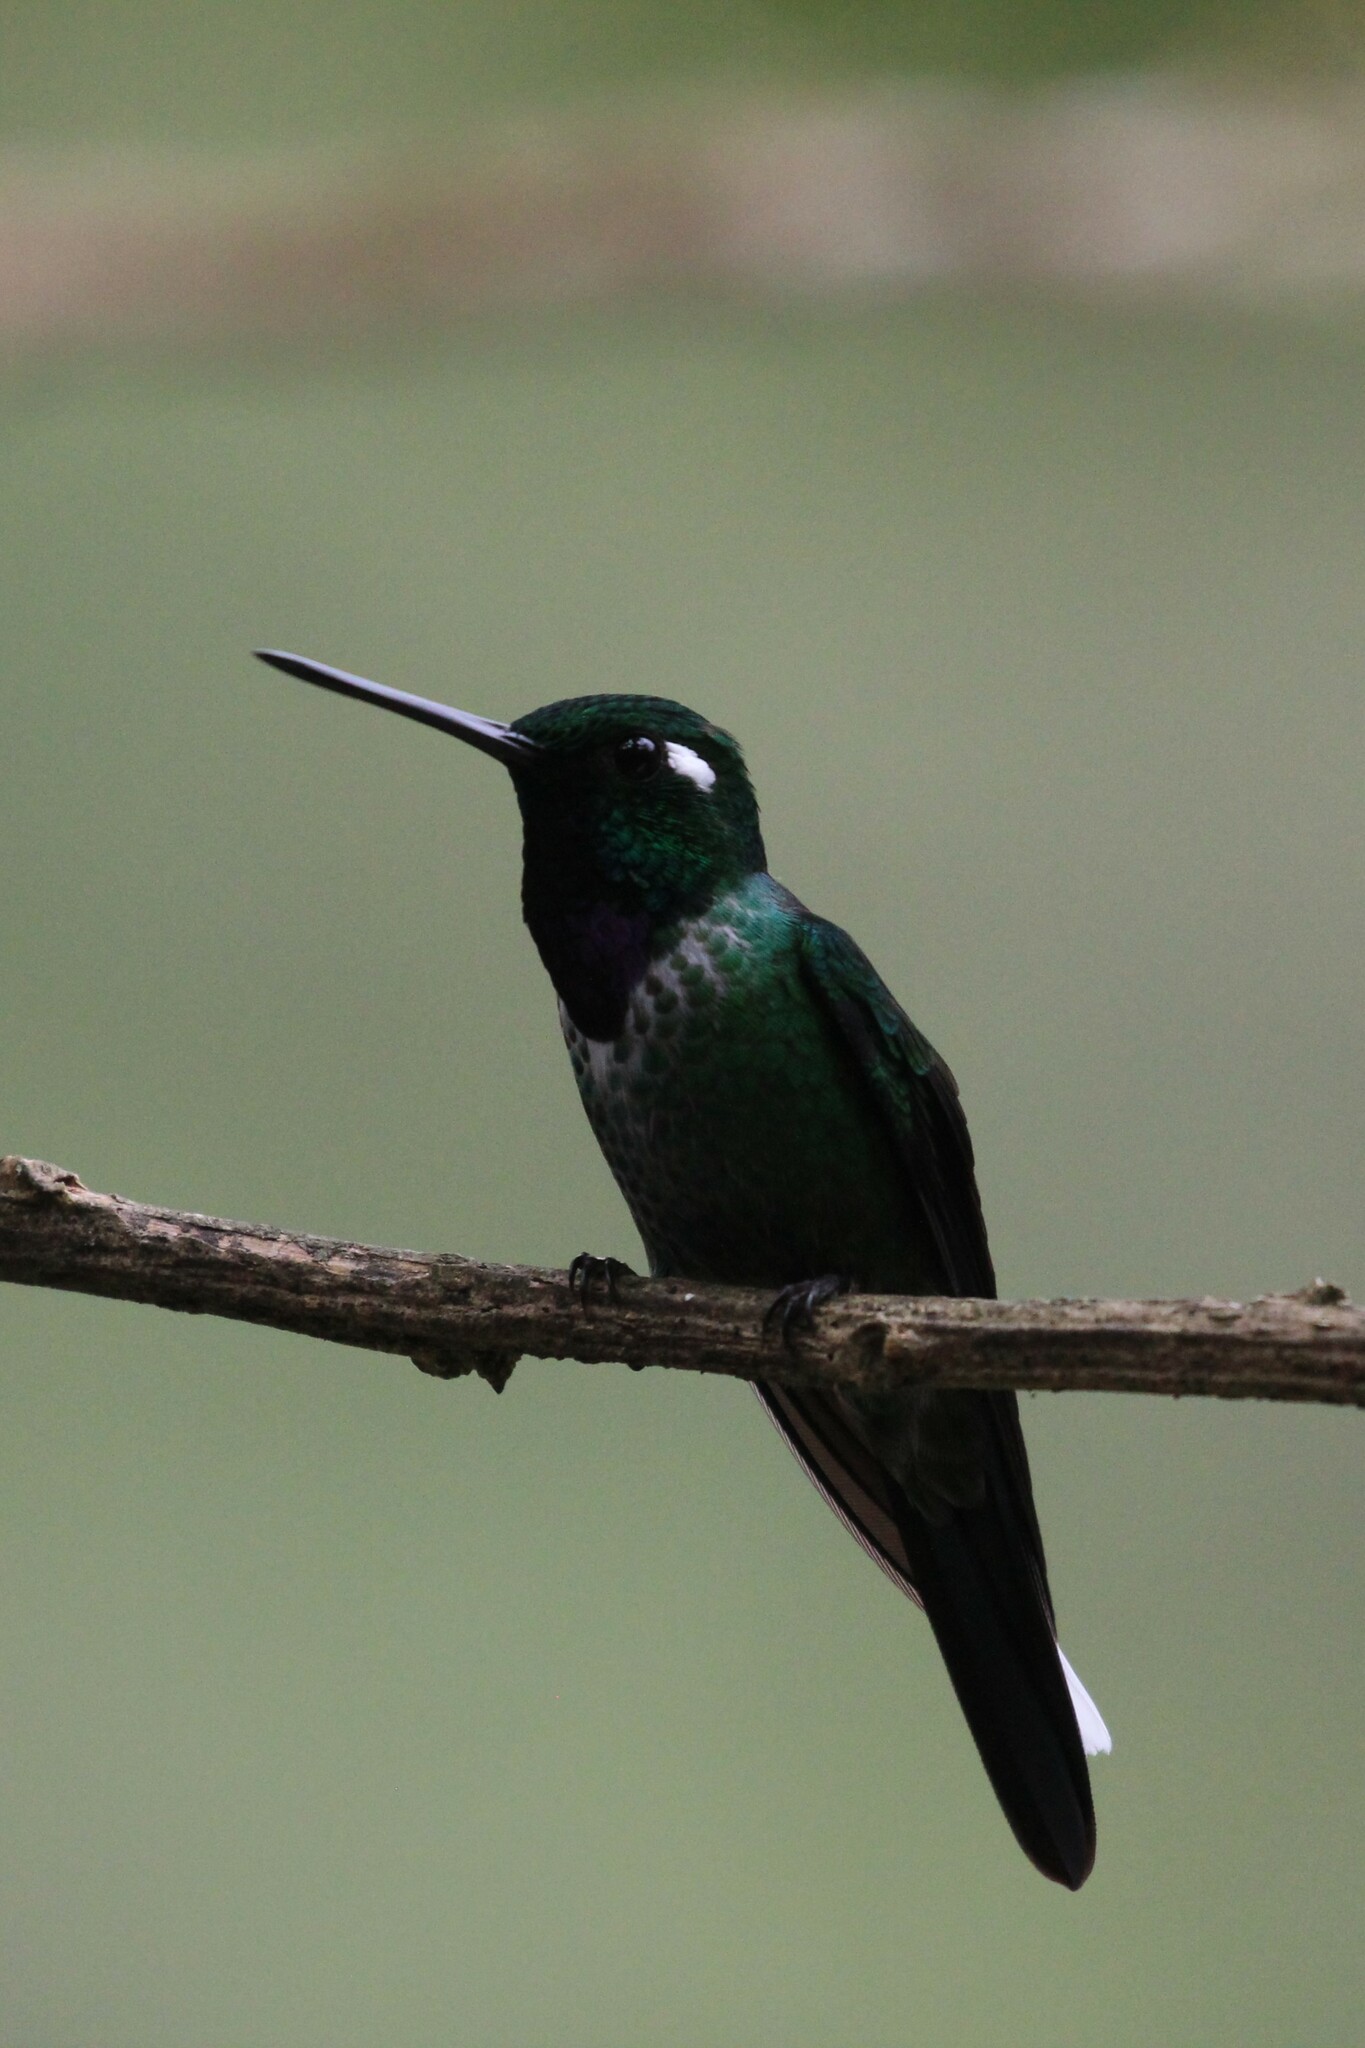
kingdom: Animalia
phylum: Chordata
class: Aves
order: Apodiformes
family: Trochilidae
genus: Urosticte
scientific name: Urosticte benjamini
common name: Purple-bibbed whitetip
